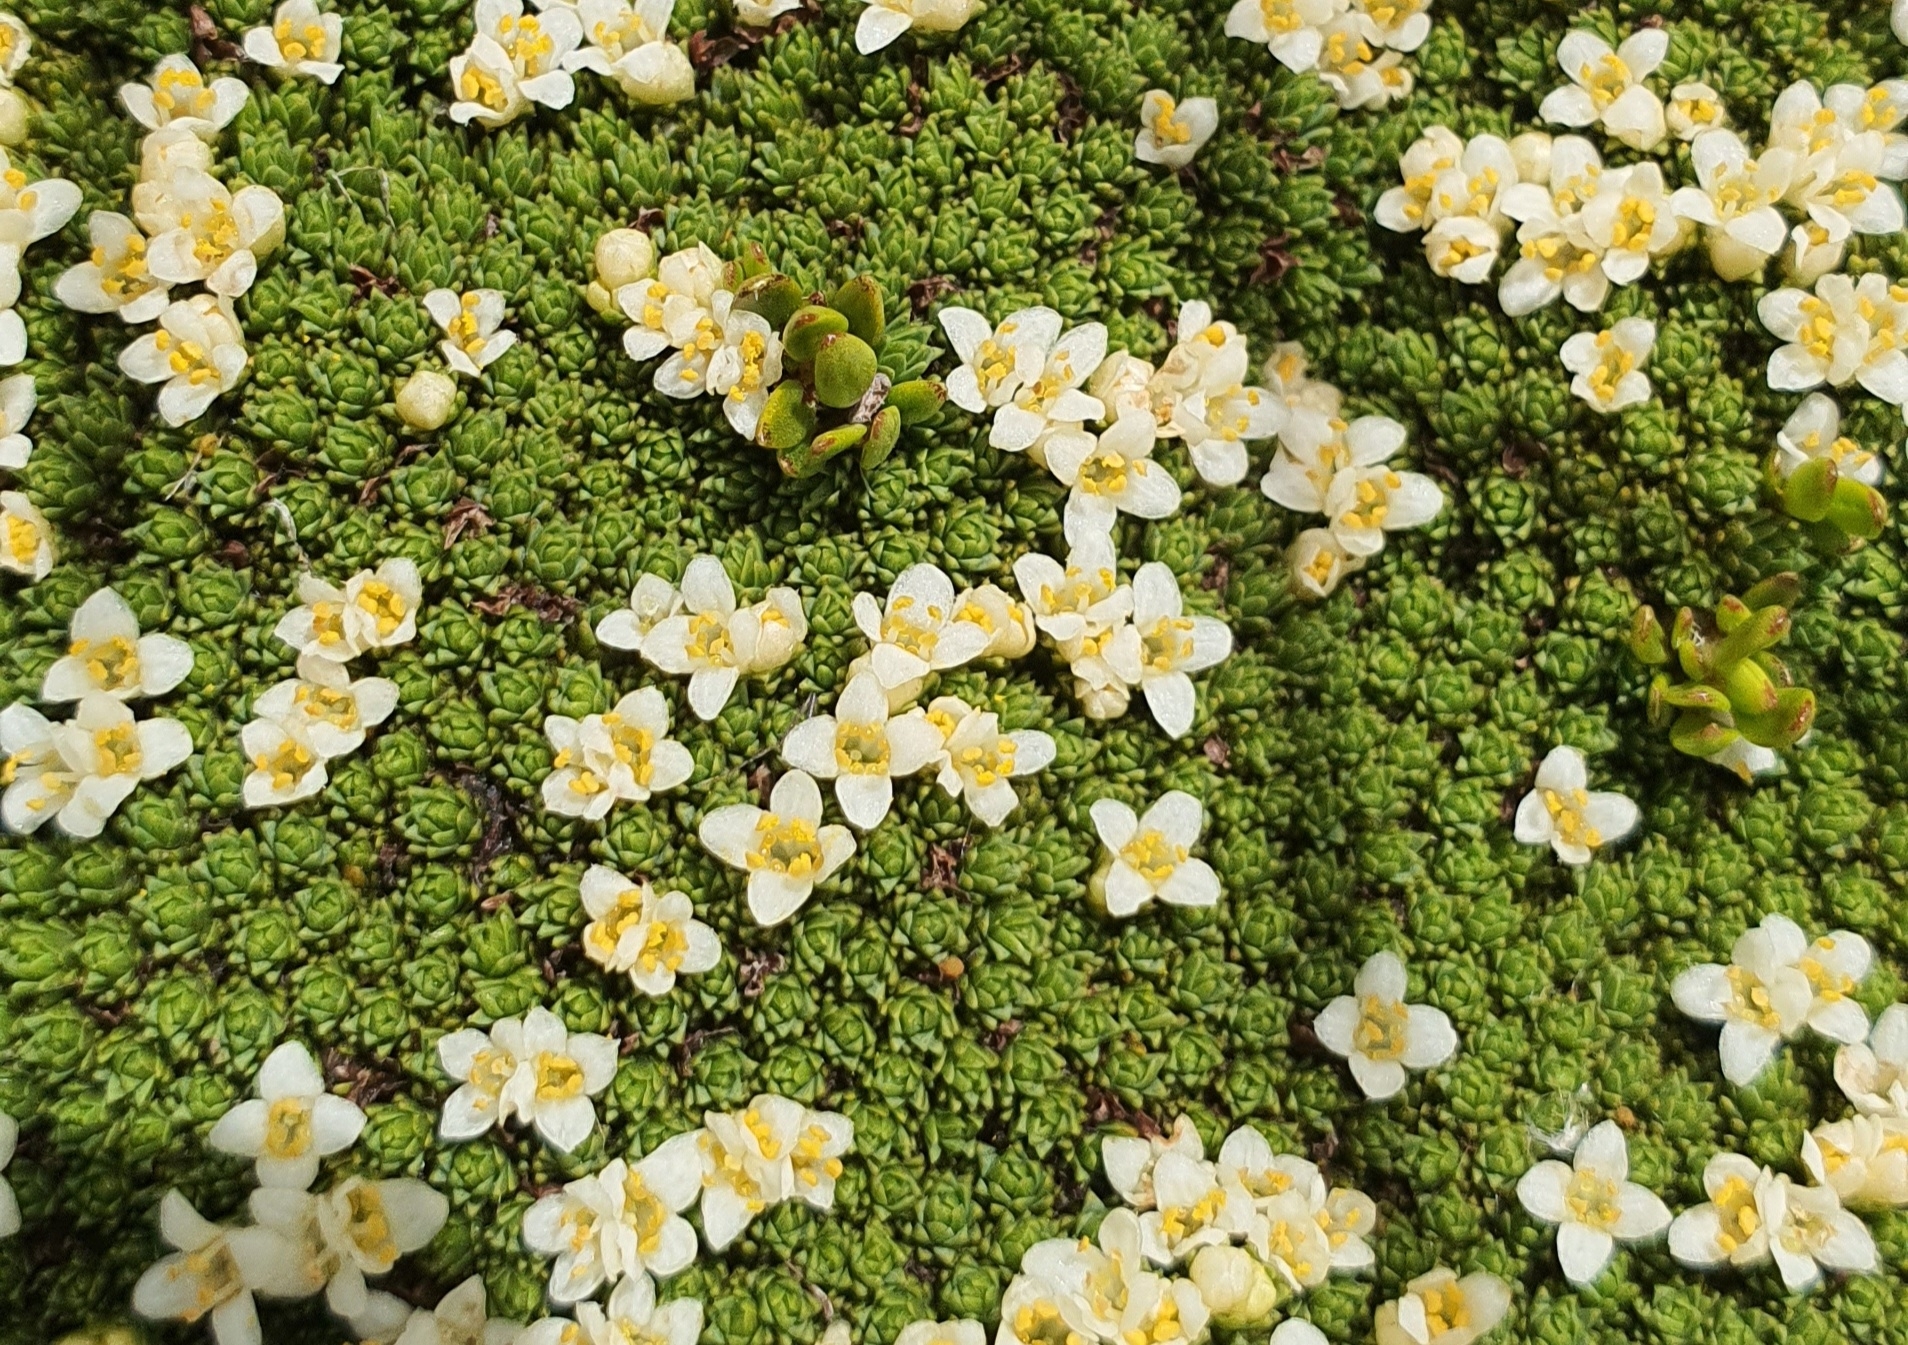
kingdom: Plantae
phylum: Tracheophyta
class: Magnoliopsida
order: Malvales
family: Thymelaeaceae
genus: Kelleria
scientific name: Kelleria croizatii
